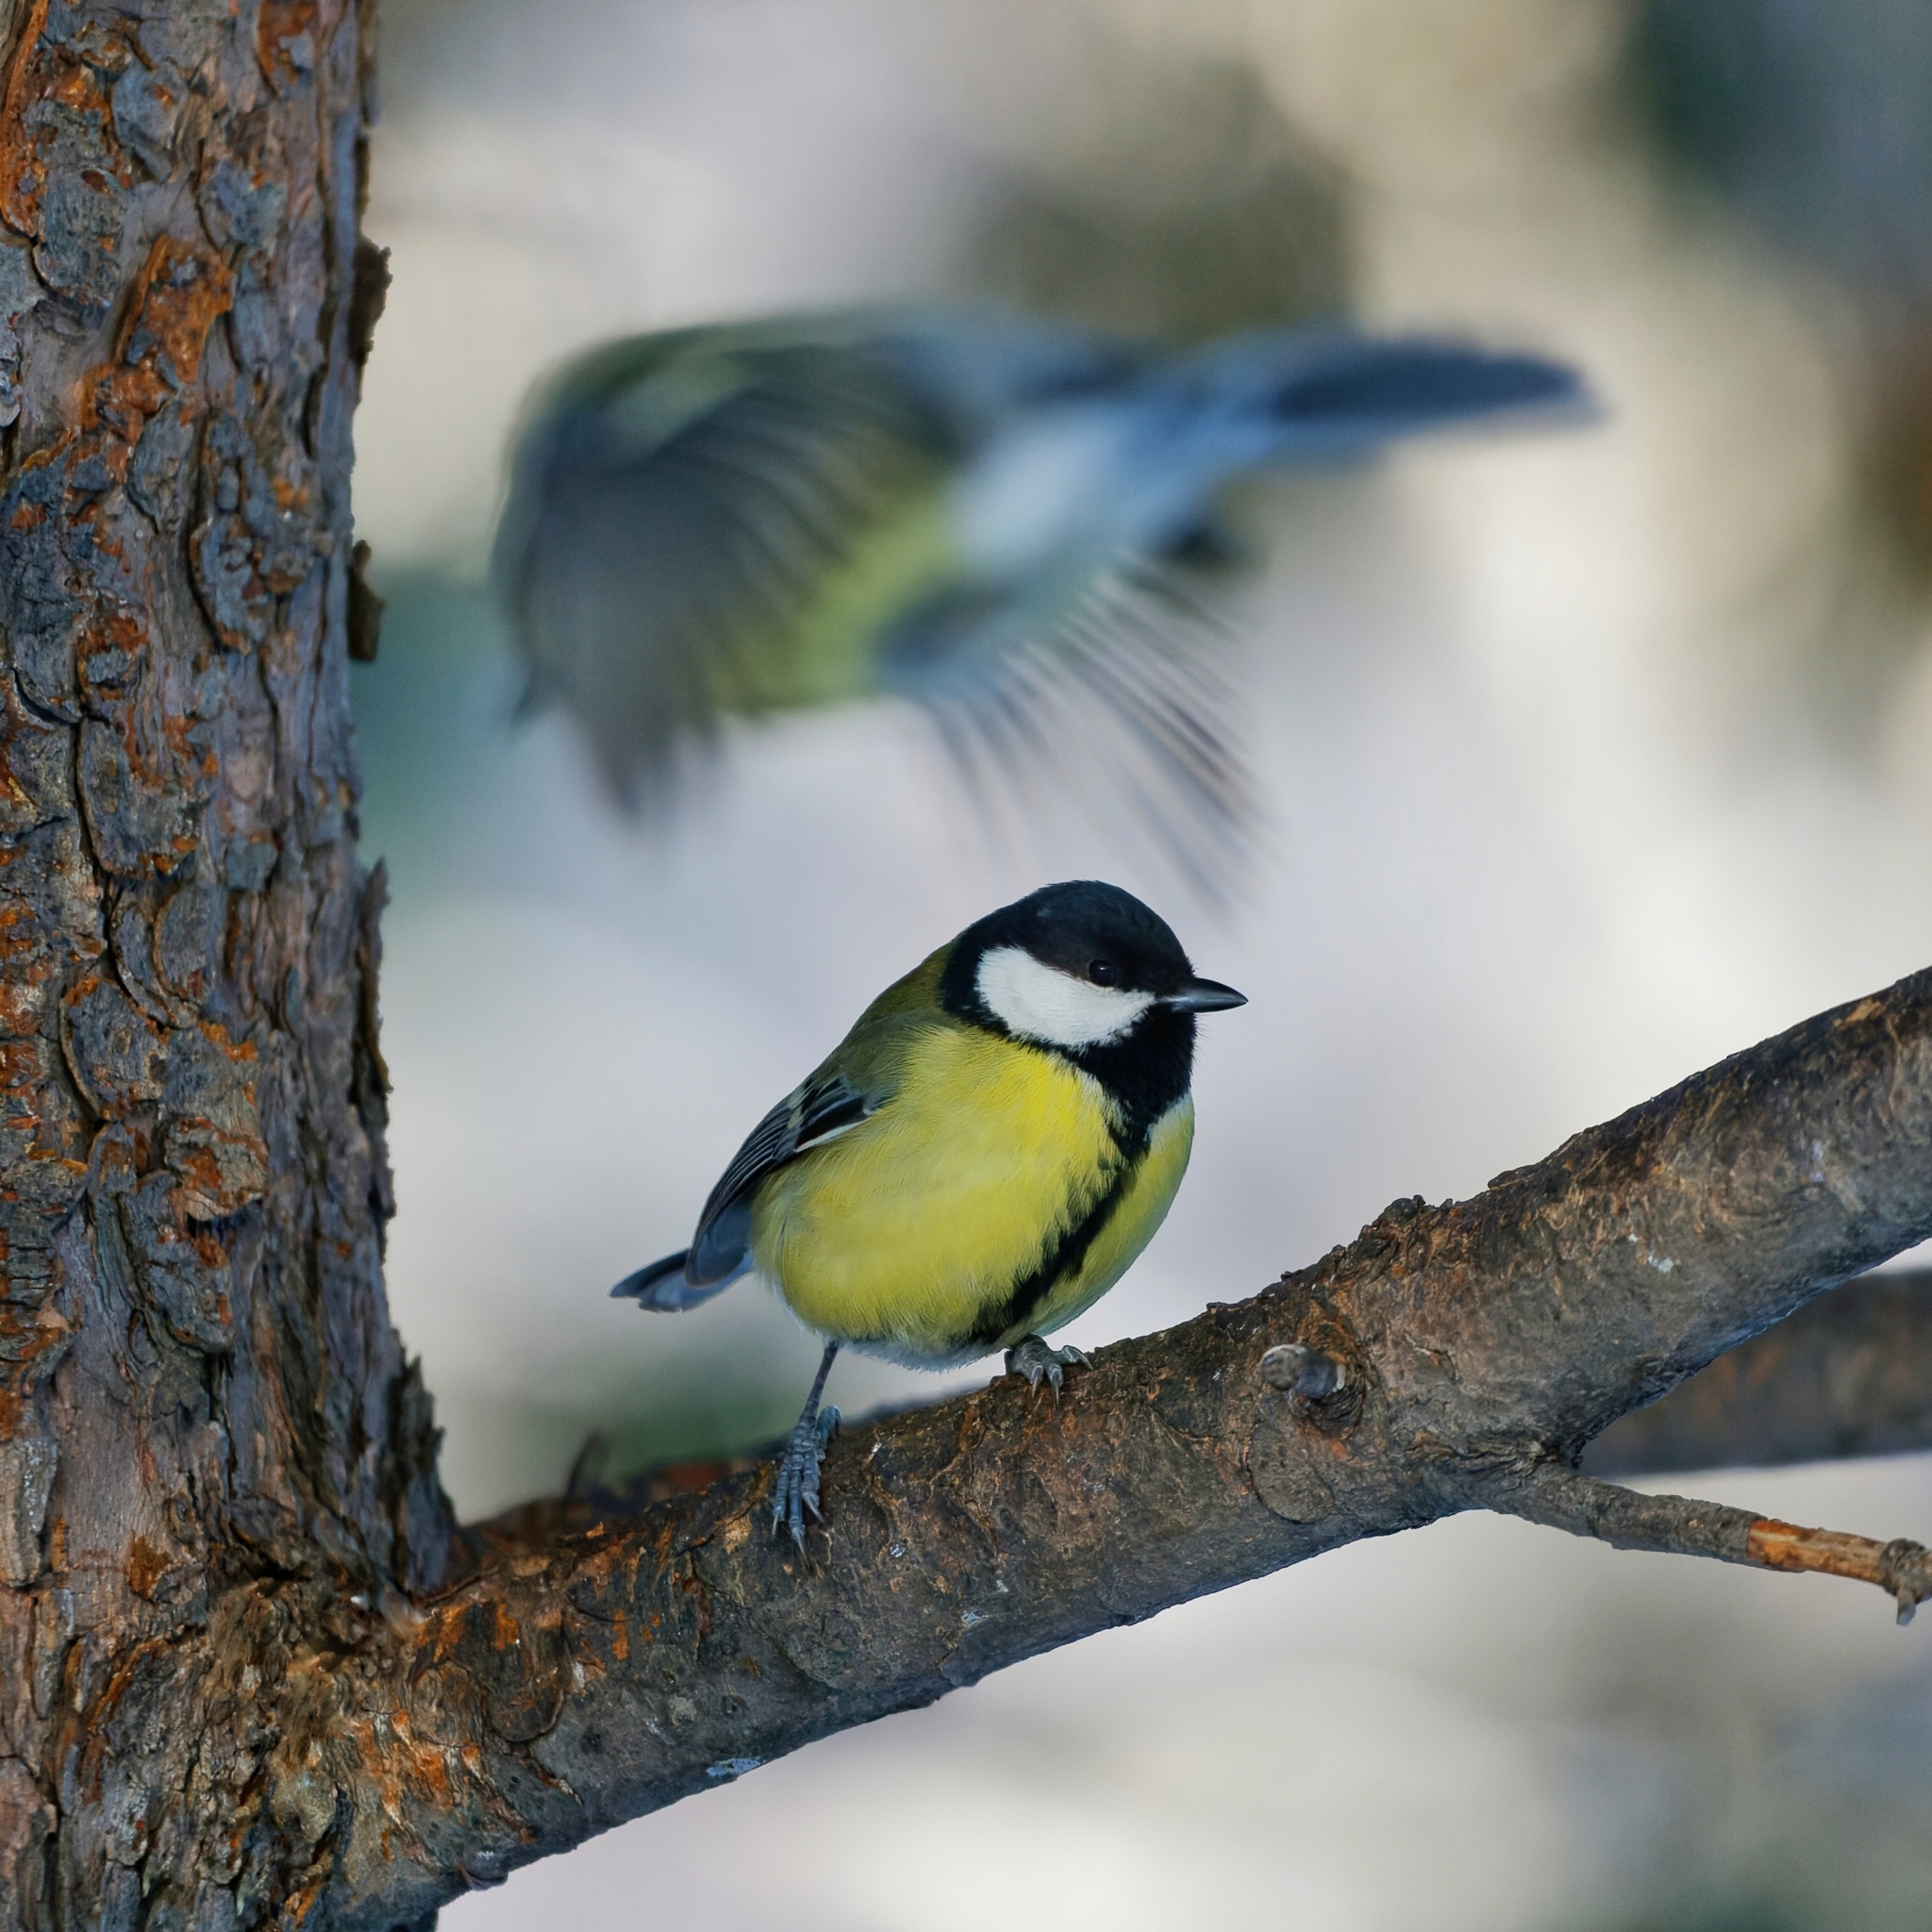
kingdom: Animalia
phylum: Chordata
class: Aves
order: Passeriformes
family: Paridae
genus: Parus
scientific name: Parus major
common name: Great tit
